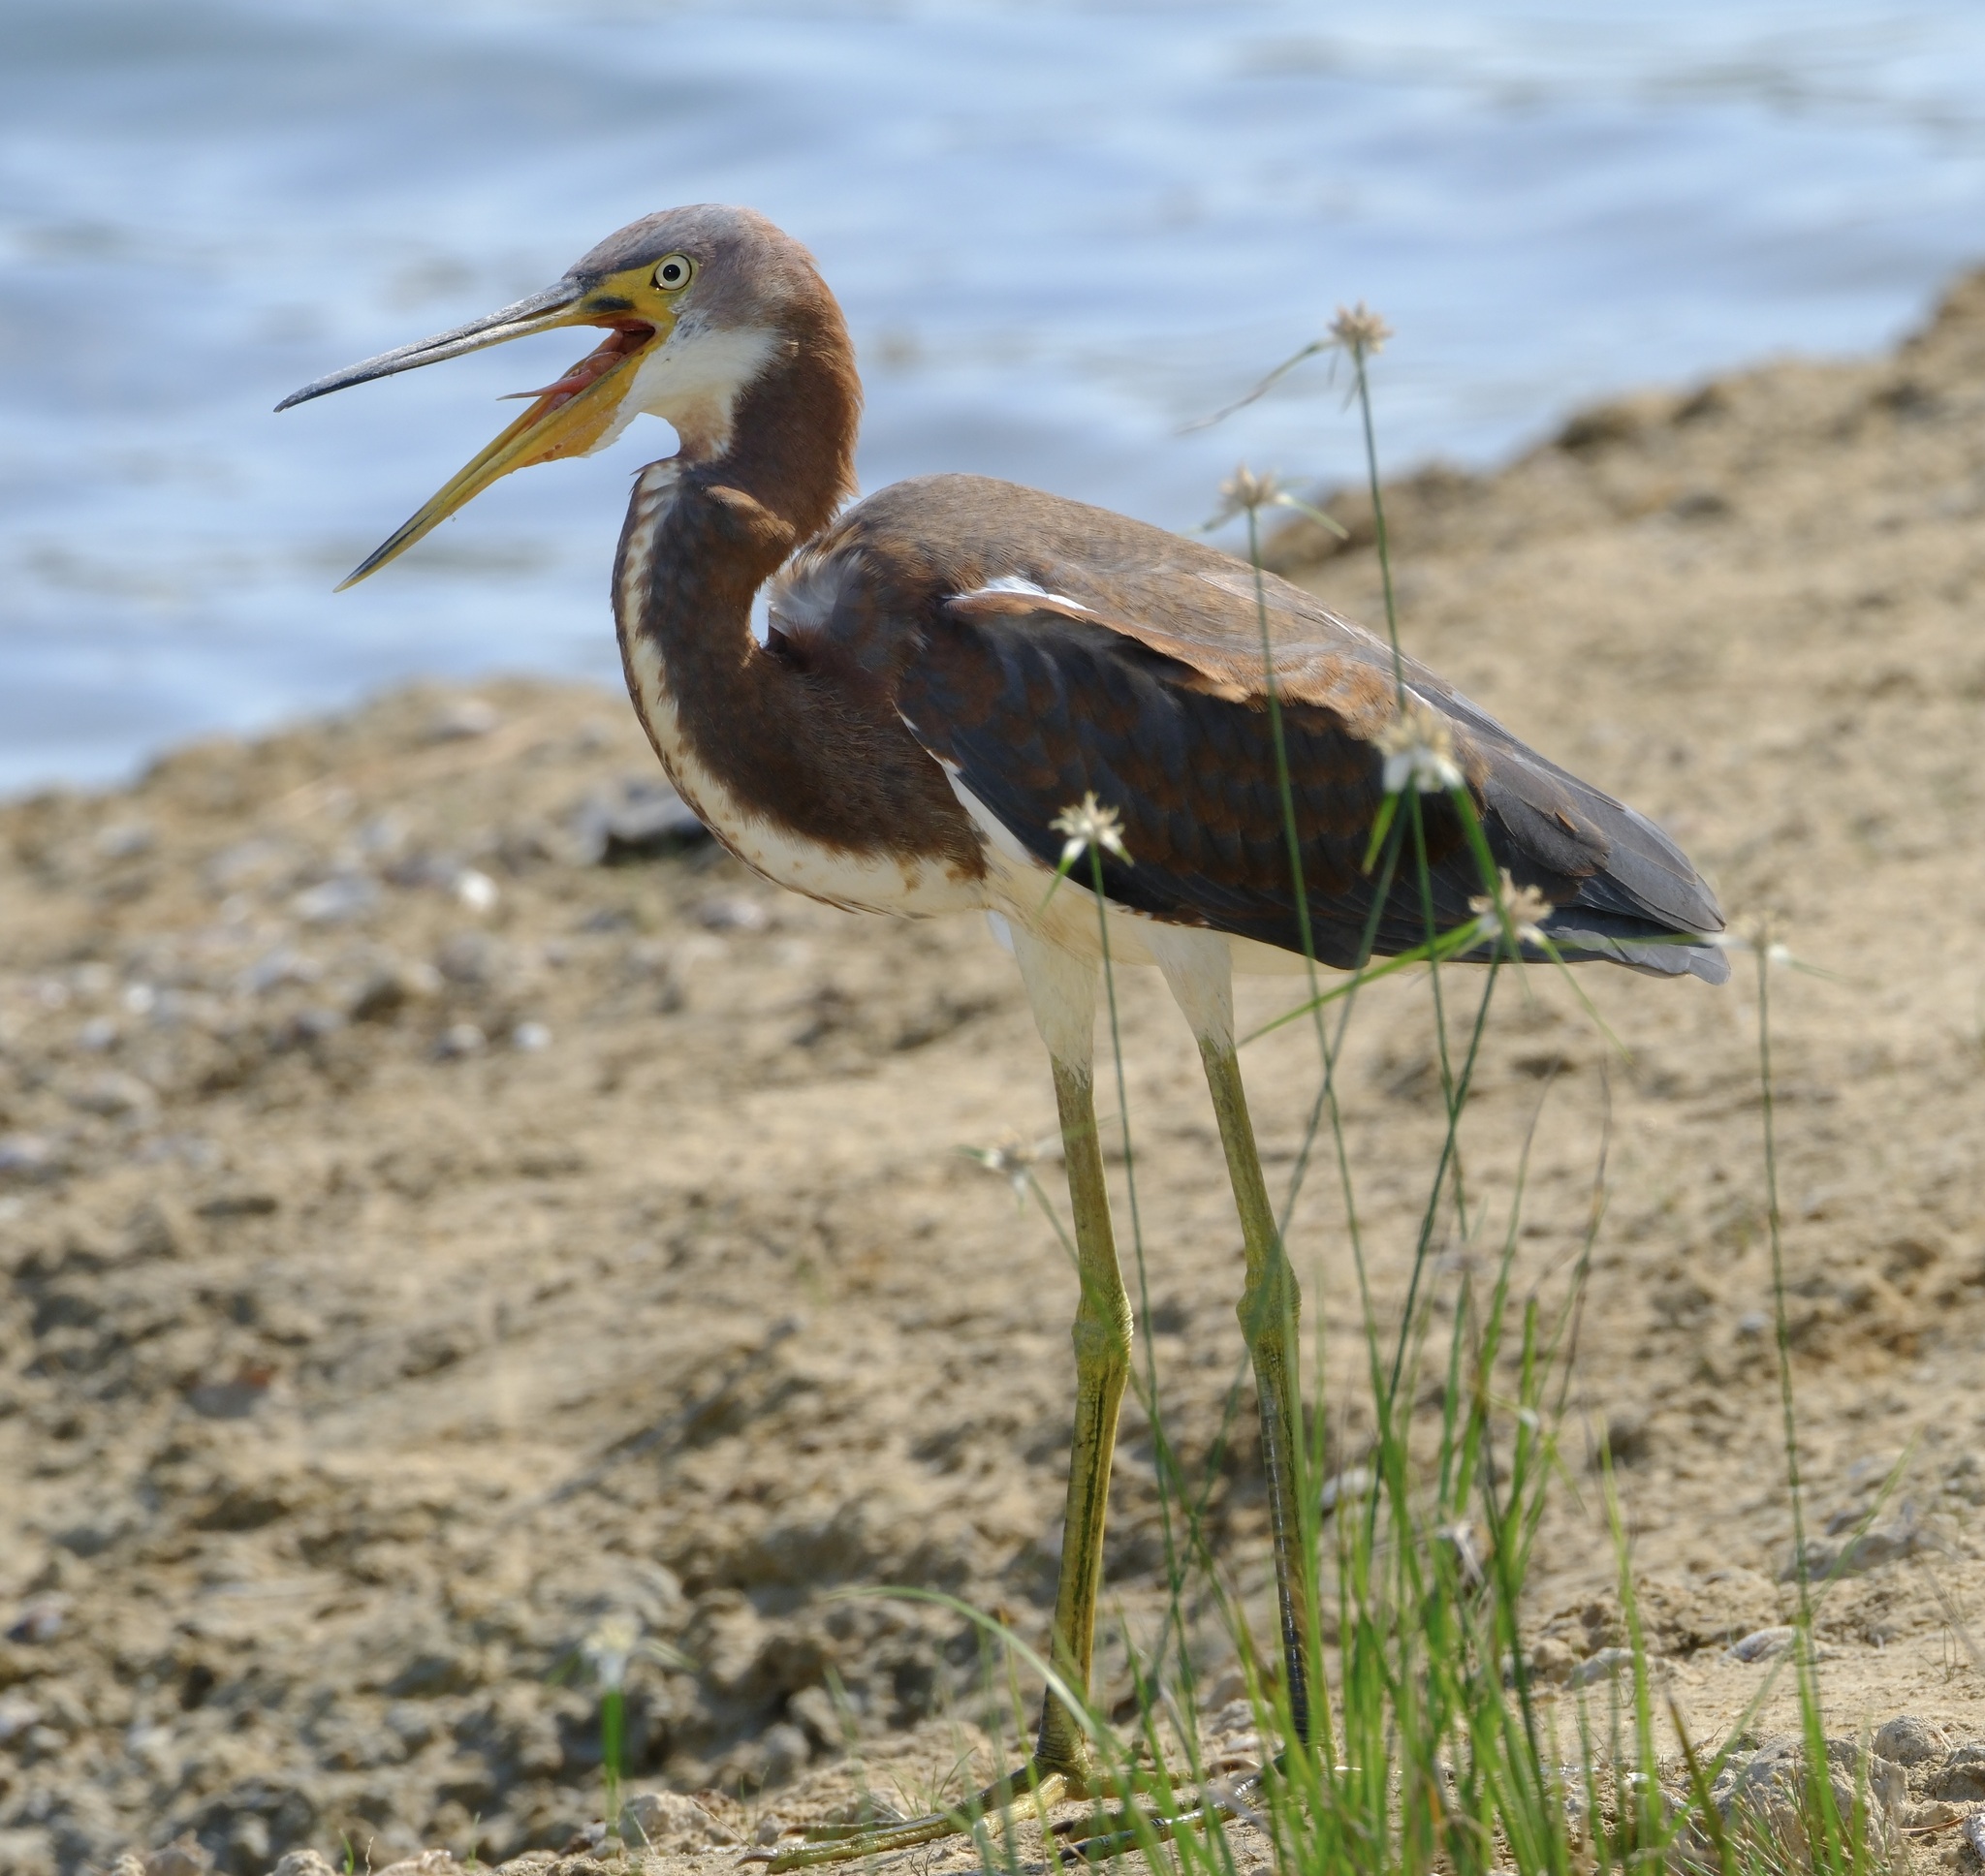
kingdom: Animalia
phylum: Chordata
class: Aves
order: Pelecaniformes
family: Ardeidae
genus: Egretta
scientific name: Egretta tricolor
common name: Tricolored heron
